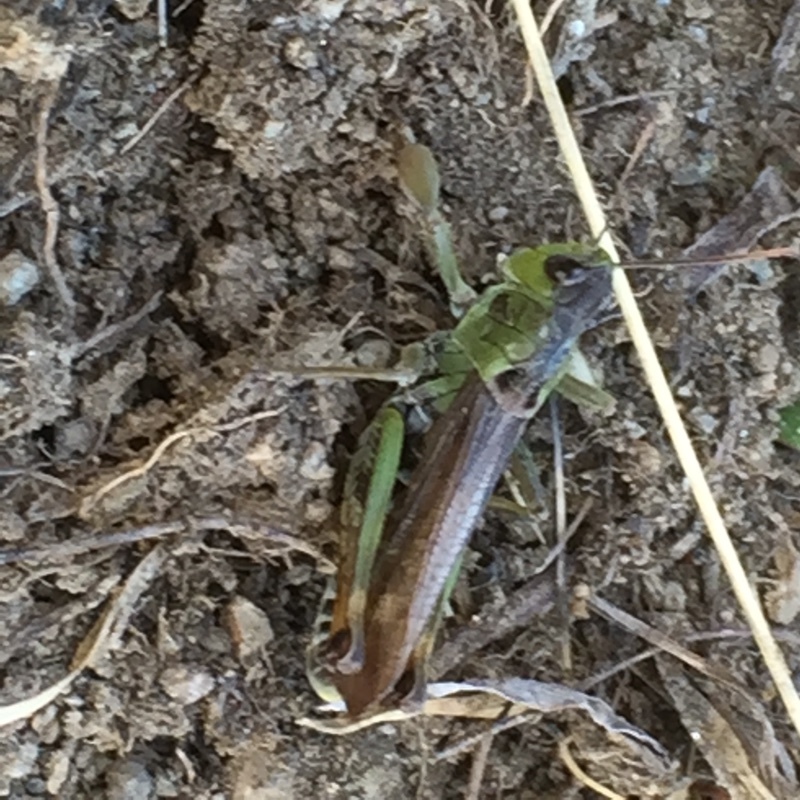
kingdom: Animalia
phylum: Arthropoda
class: Insecta
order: Orthoptera
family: Acrididae
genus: Gomphocerus
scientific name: Gomphocerus sibiricus
